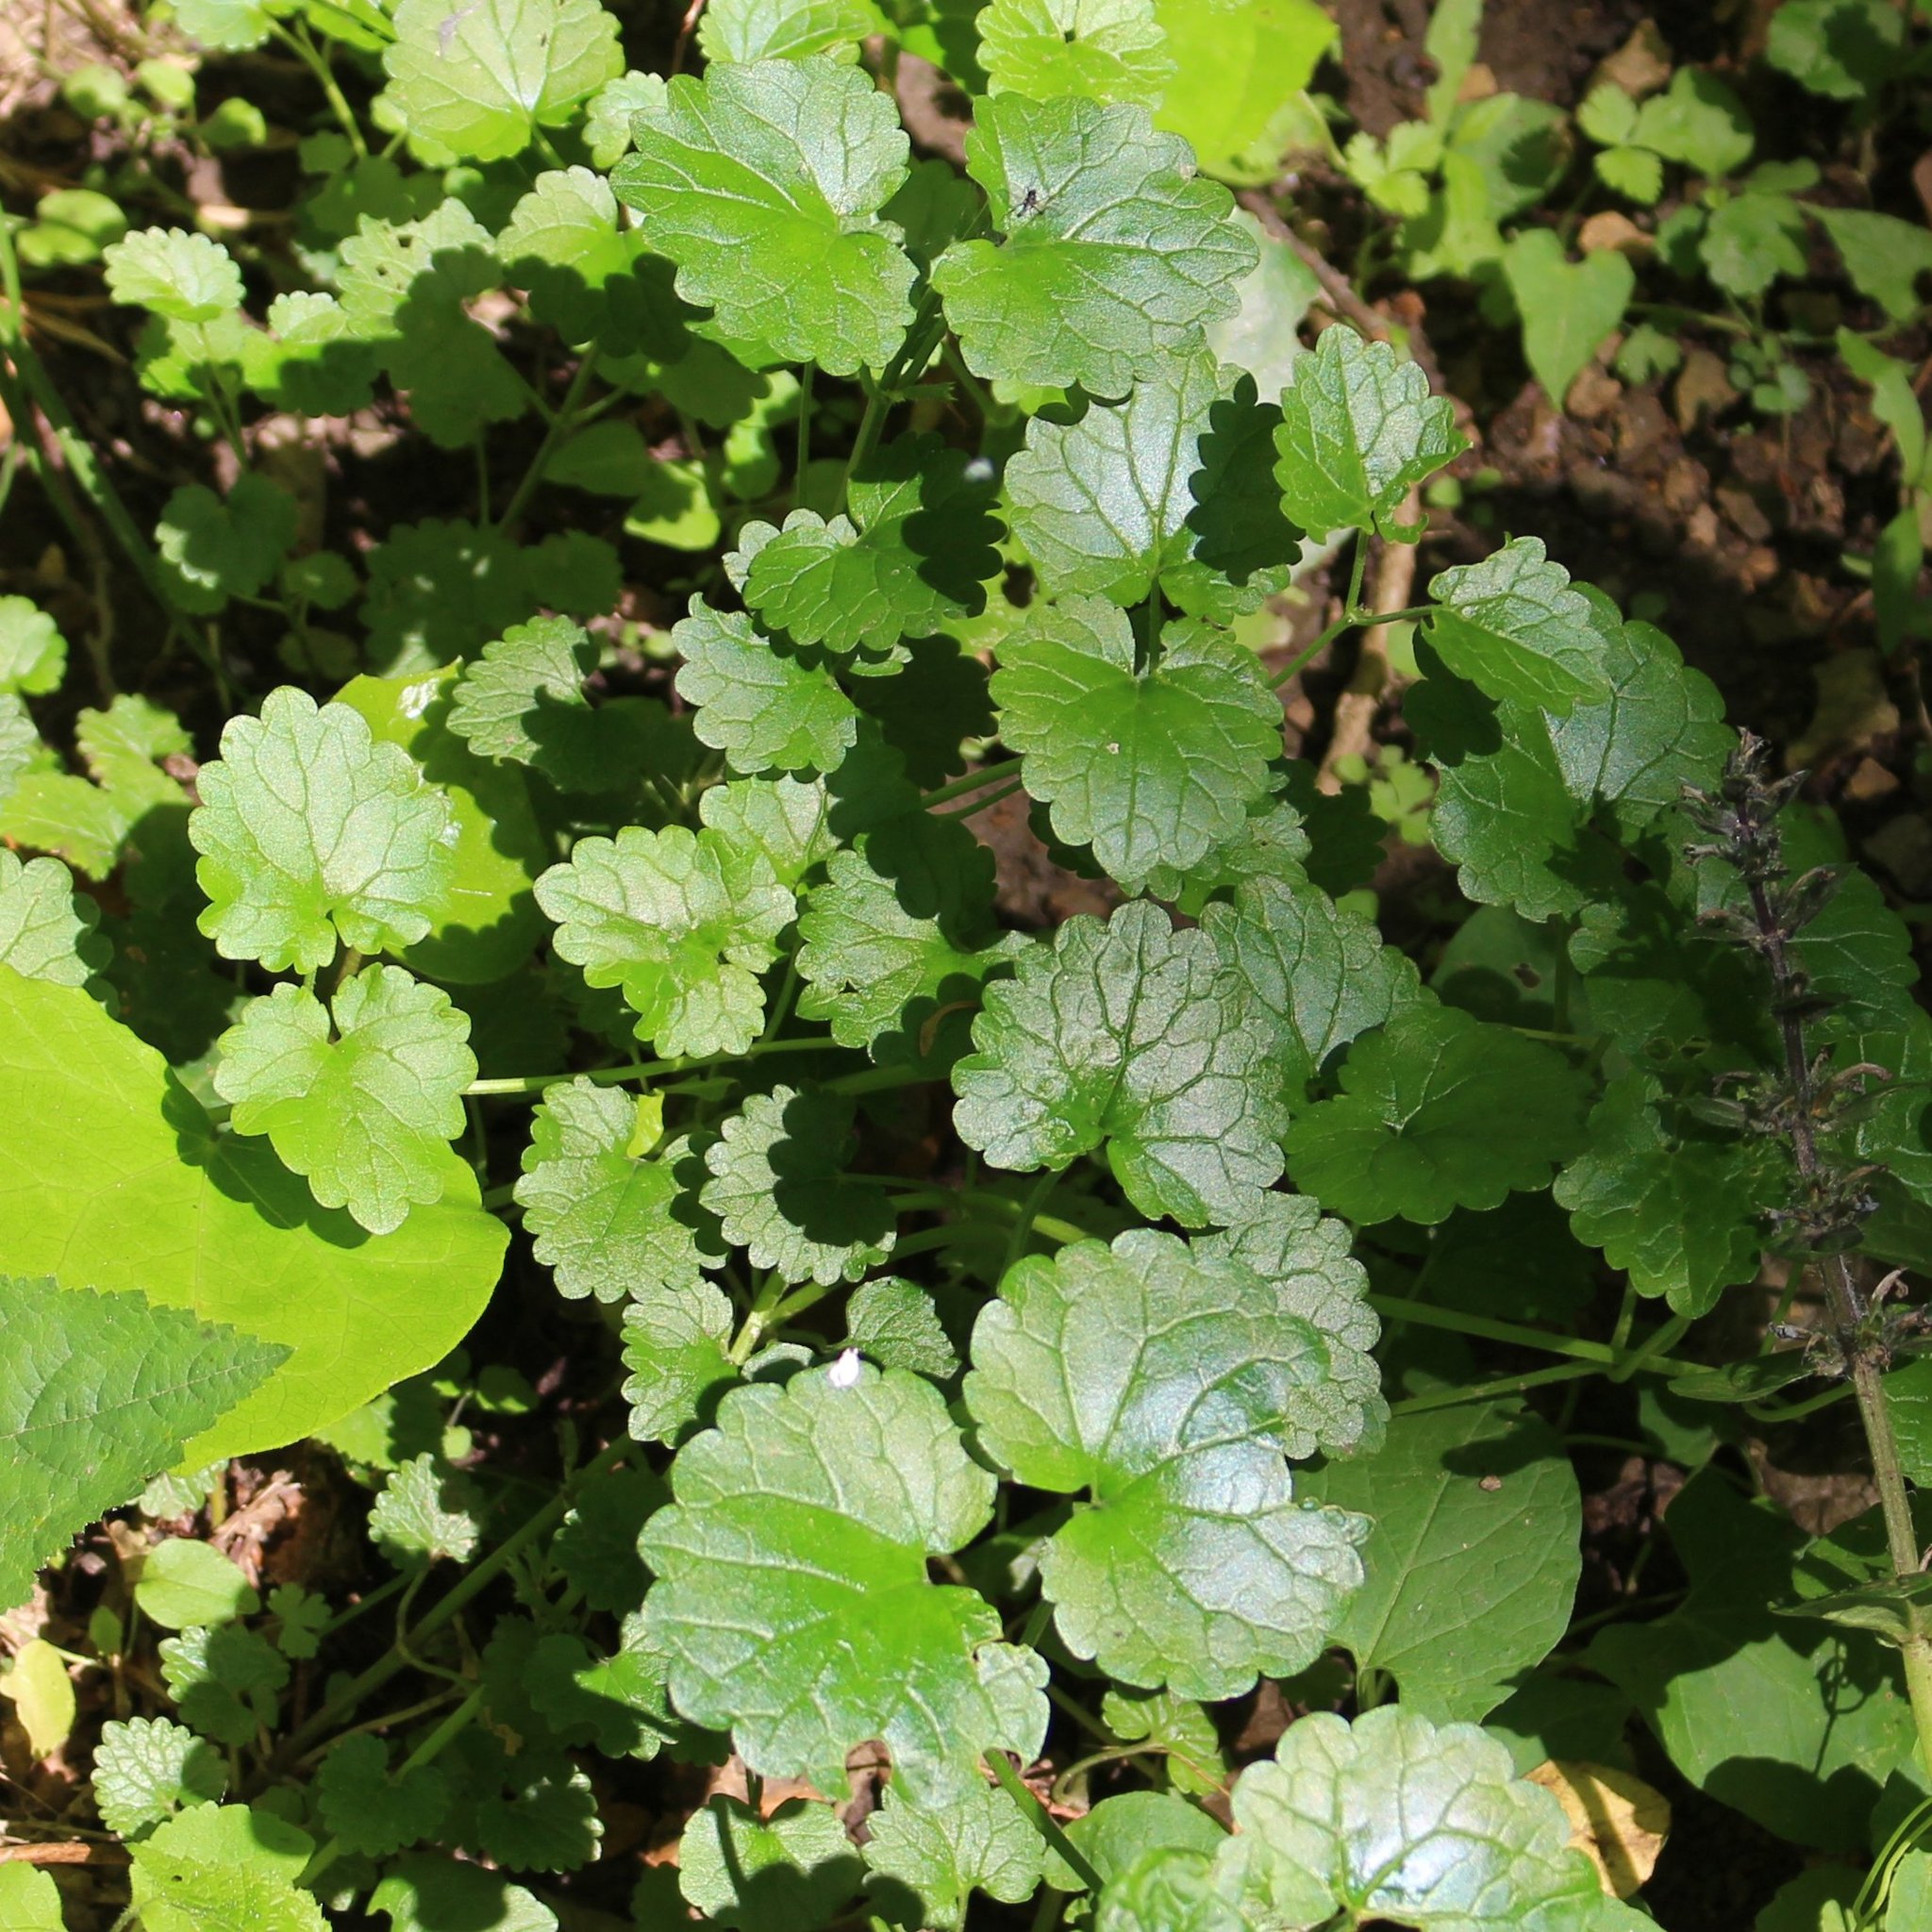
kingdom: Plantae
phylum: Tracheophyta
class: Magnoliopsida
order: Lamiales
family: Lamiaceae
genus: Glechoma
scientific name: Glechoma hederacea
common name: Ground ivy
